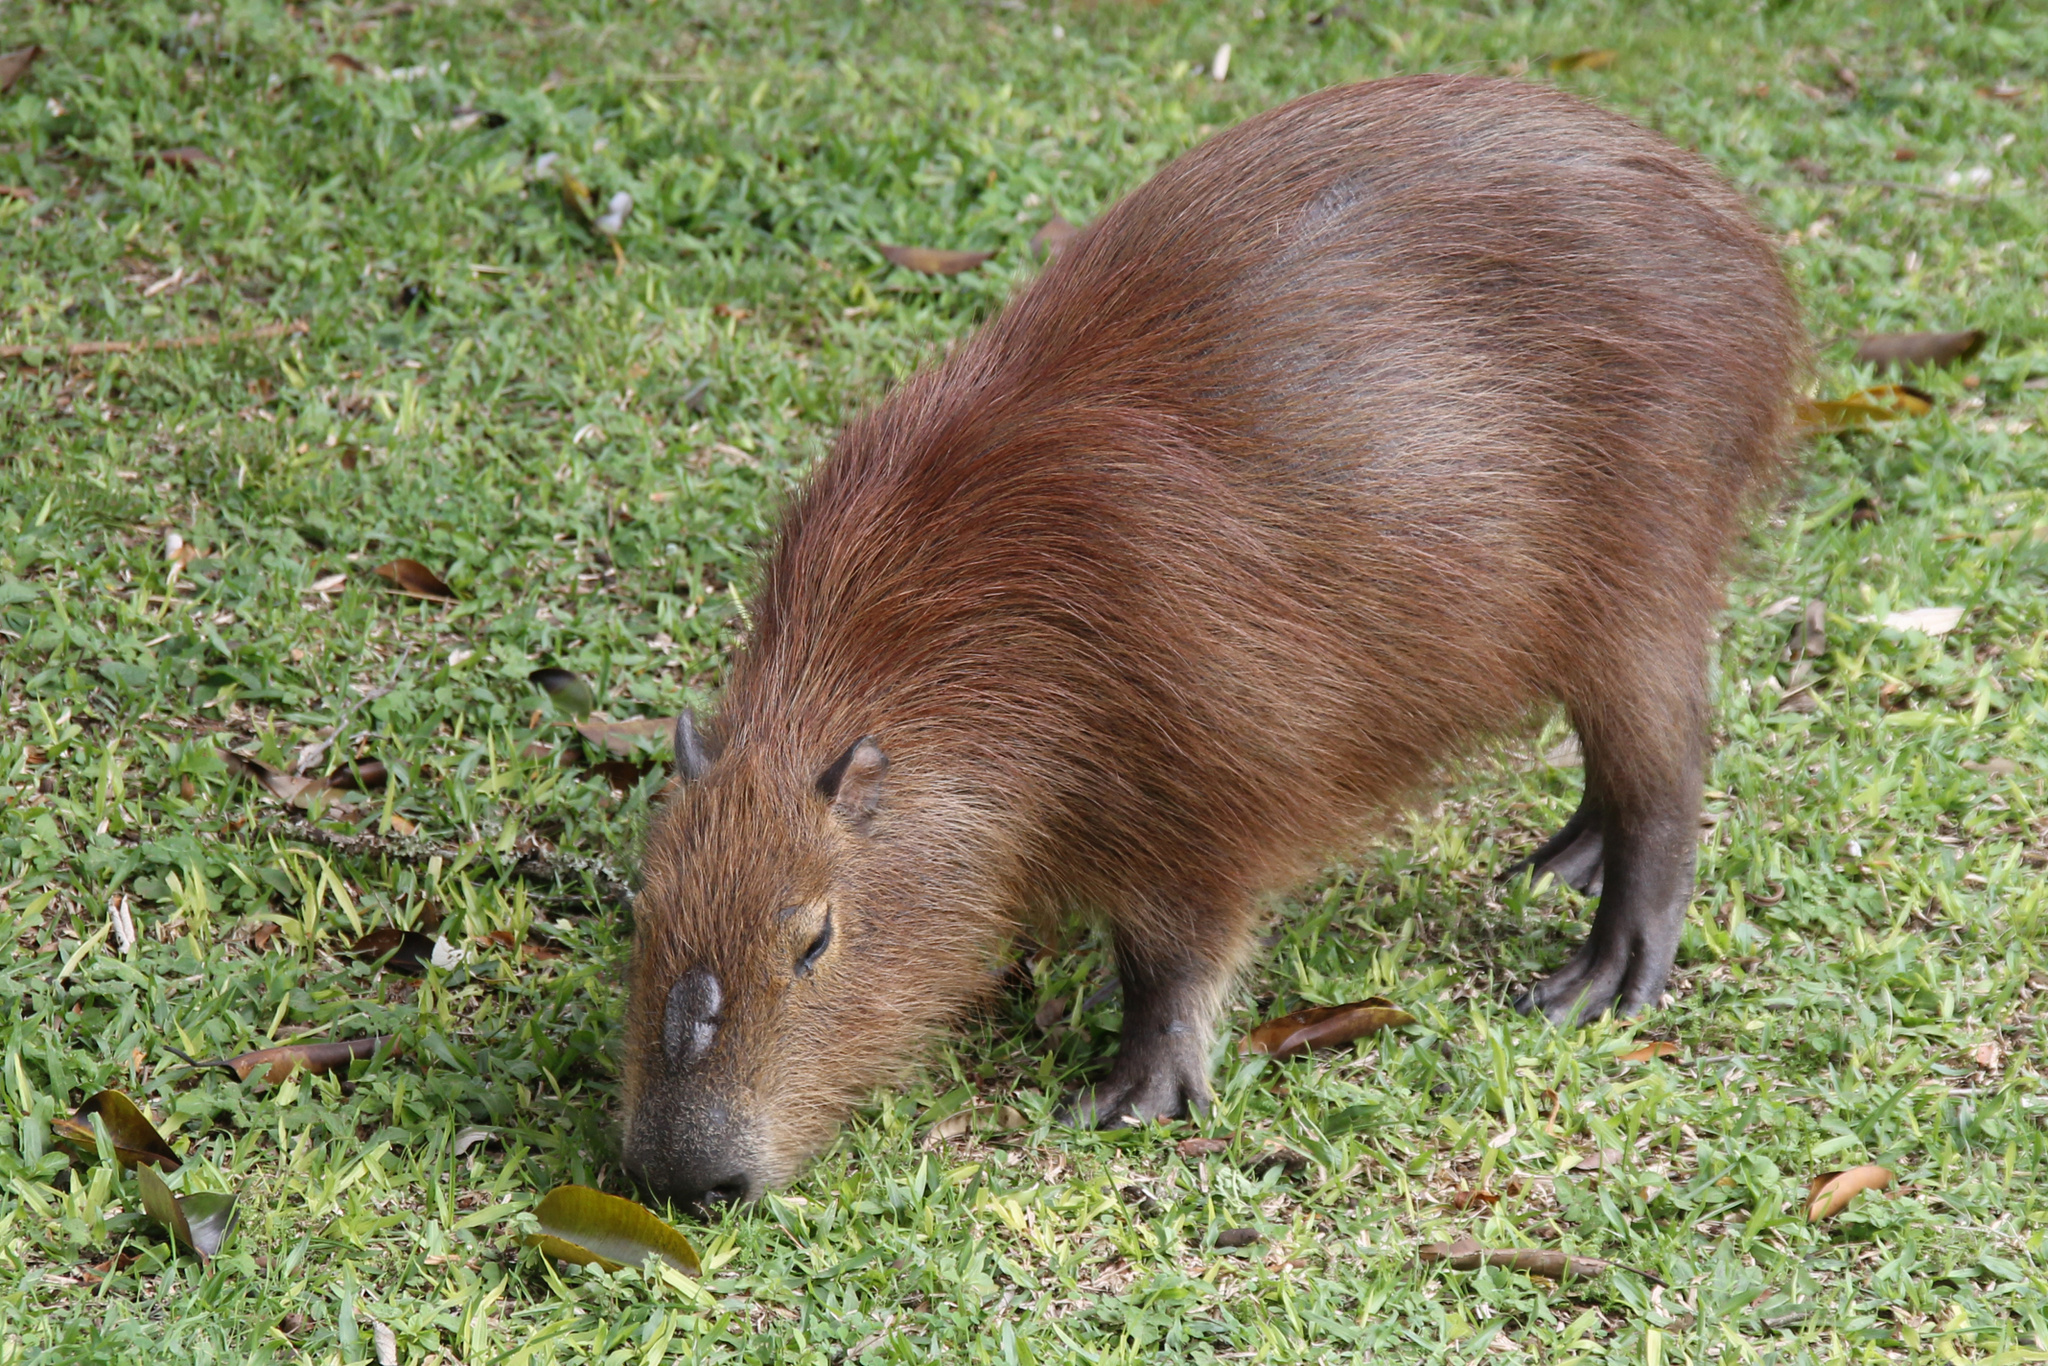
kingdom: Animalia
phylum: Chordata
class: Mammalia
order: Rodentia
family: Caviidae
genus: Hydrochoerus
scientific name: Hydrochoerus hydrochaeris
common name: Capybara
